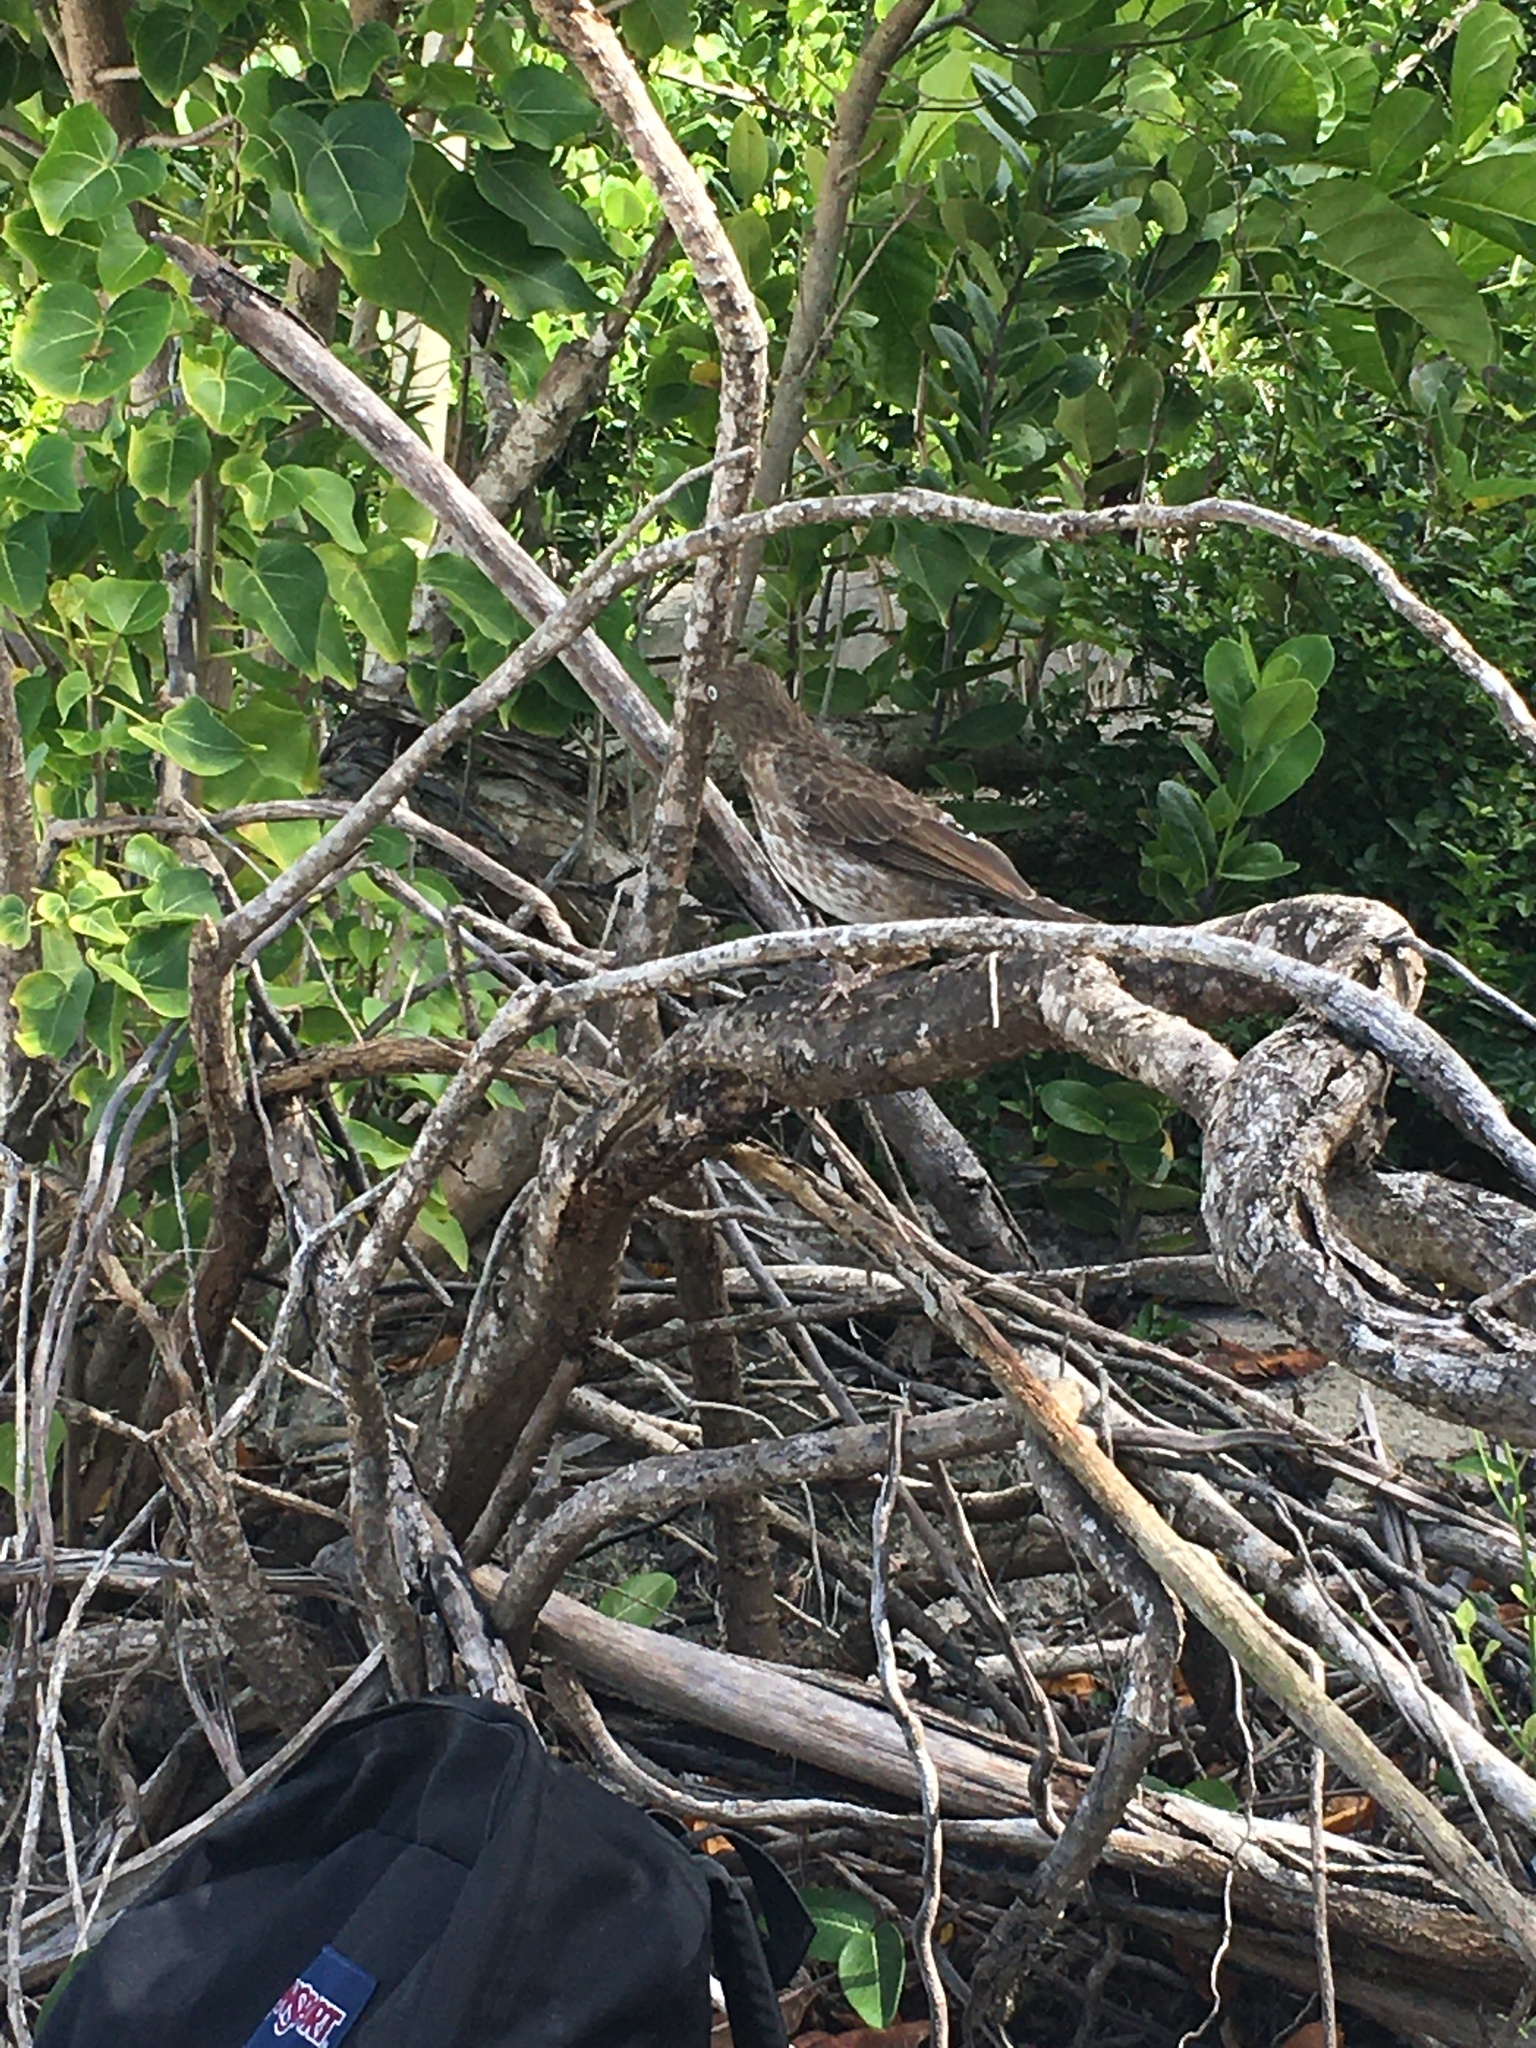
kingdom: Animalia
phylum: Chordata
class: Aves
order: Passeriformes
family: Mimidae
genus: Margarops
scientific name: Margarops fuscatus
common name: Pearly-eyed thrasher
